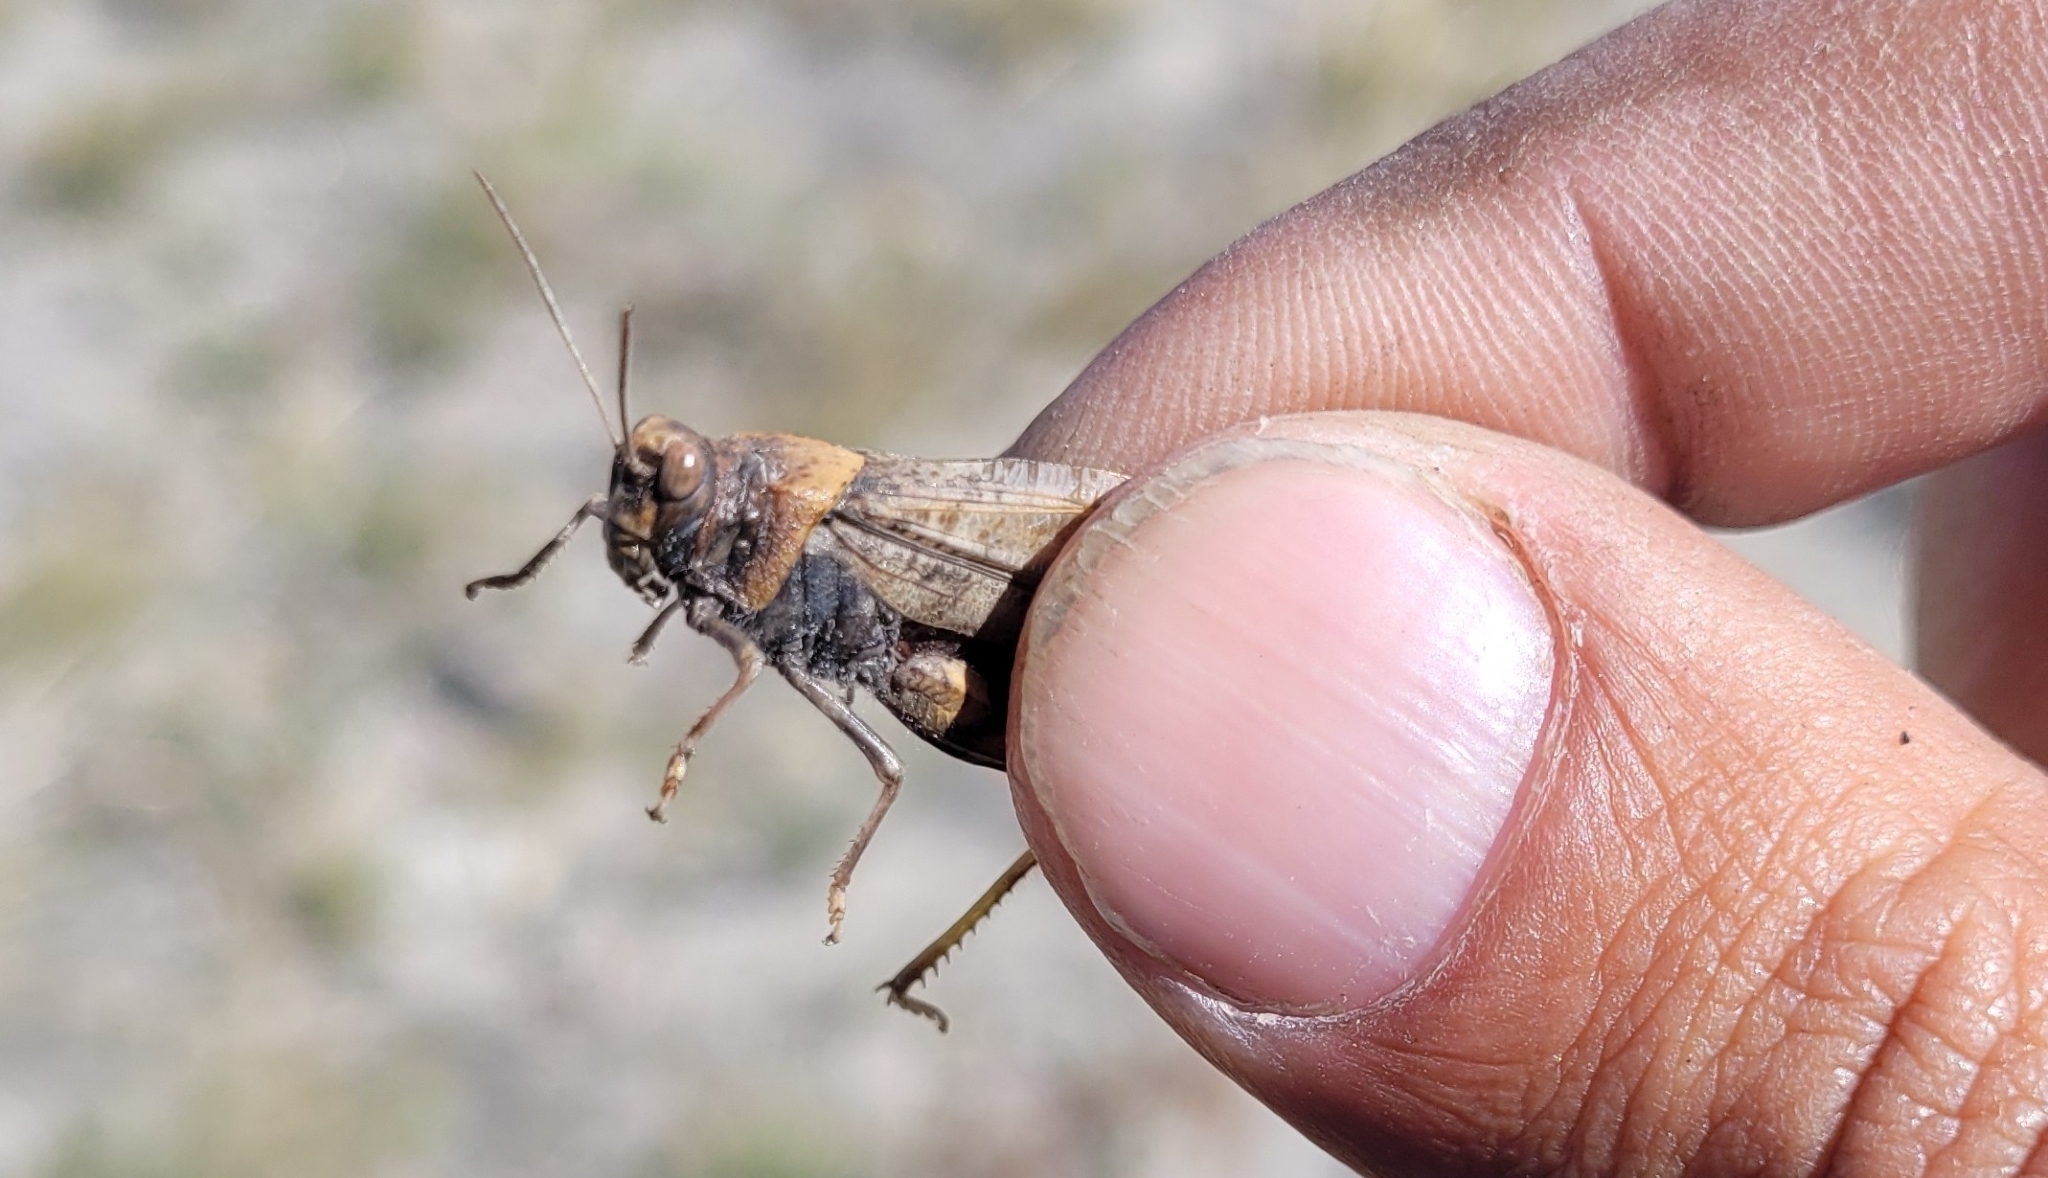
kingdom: Animalia
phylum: Arthropoda
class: Insecta
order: Orthoptera
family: Acrididae
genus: Bryodemella
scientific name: Bryodemella tuberculata
